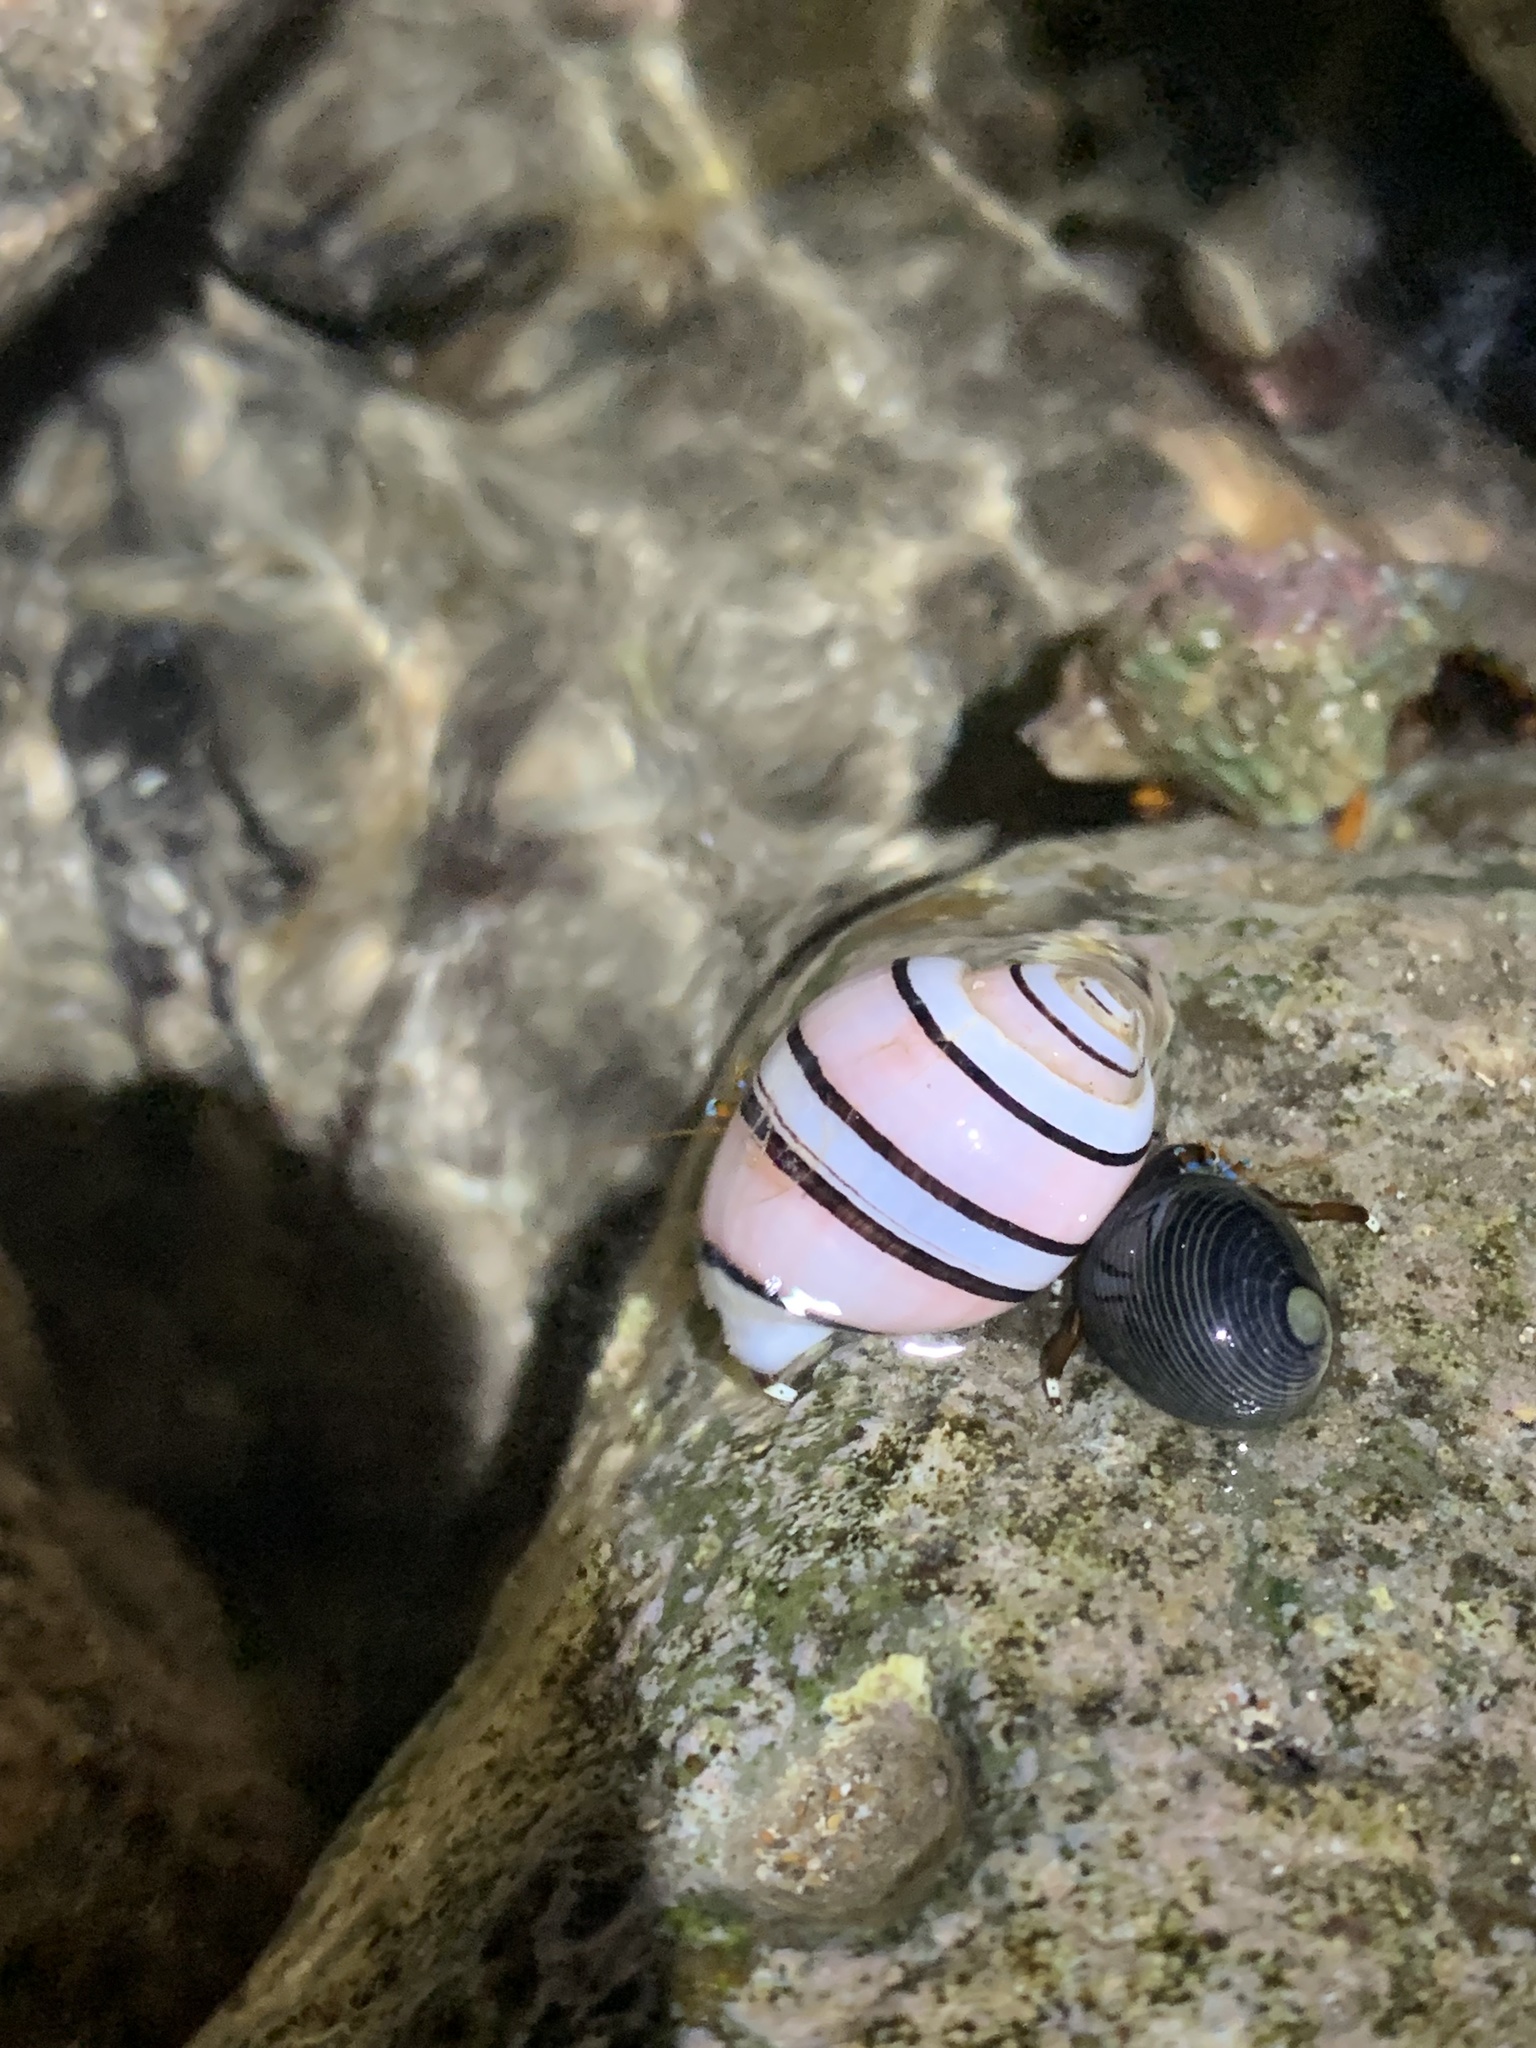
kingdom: Animalia
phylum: Mollusca
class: Gastropoda
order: Cephalaspidea
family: Aplustridae
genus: Aplustrum
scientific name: Aplustrum amplustre
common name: Royal paperbubble
